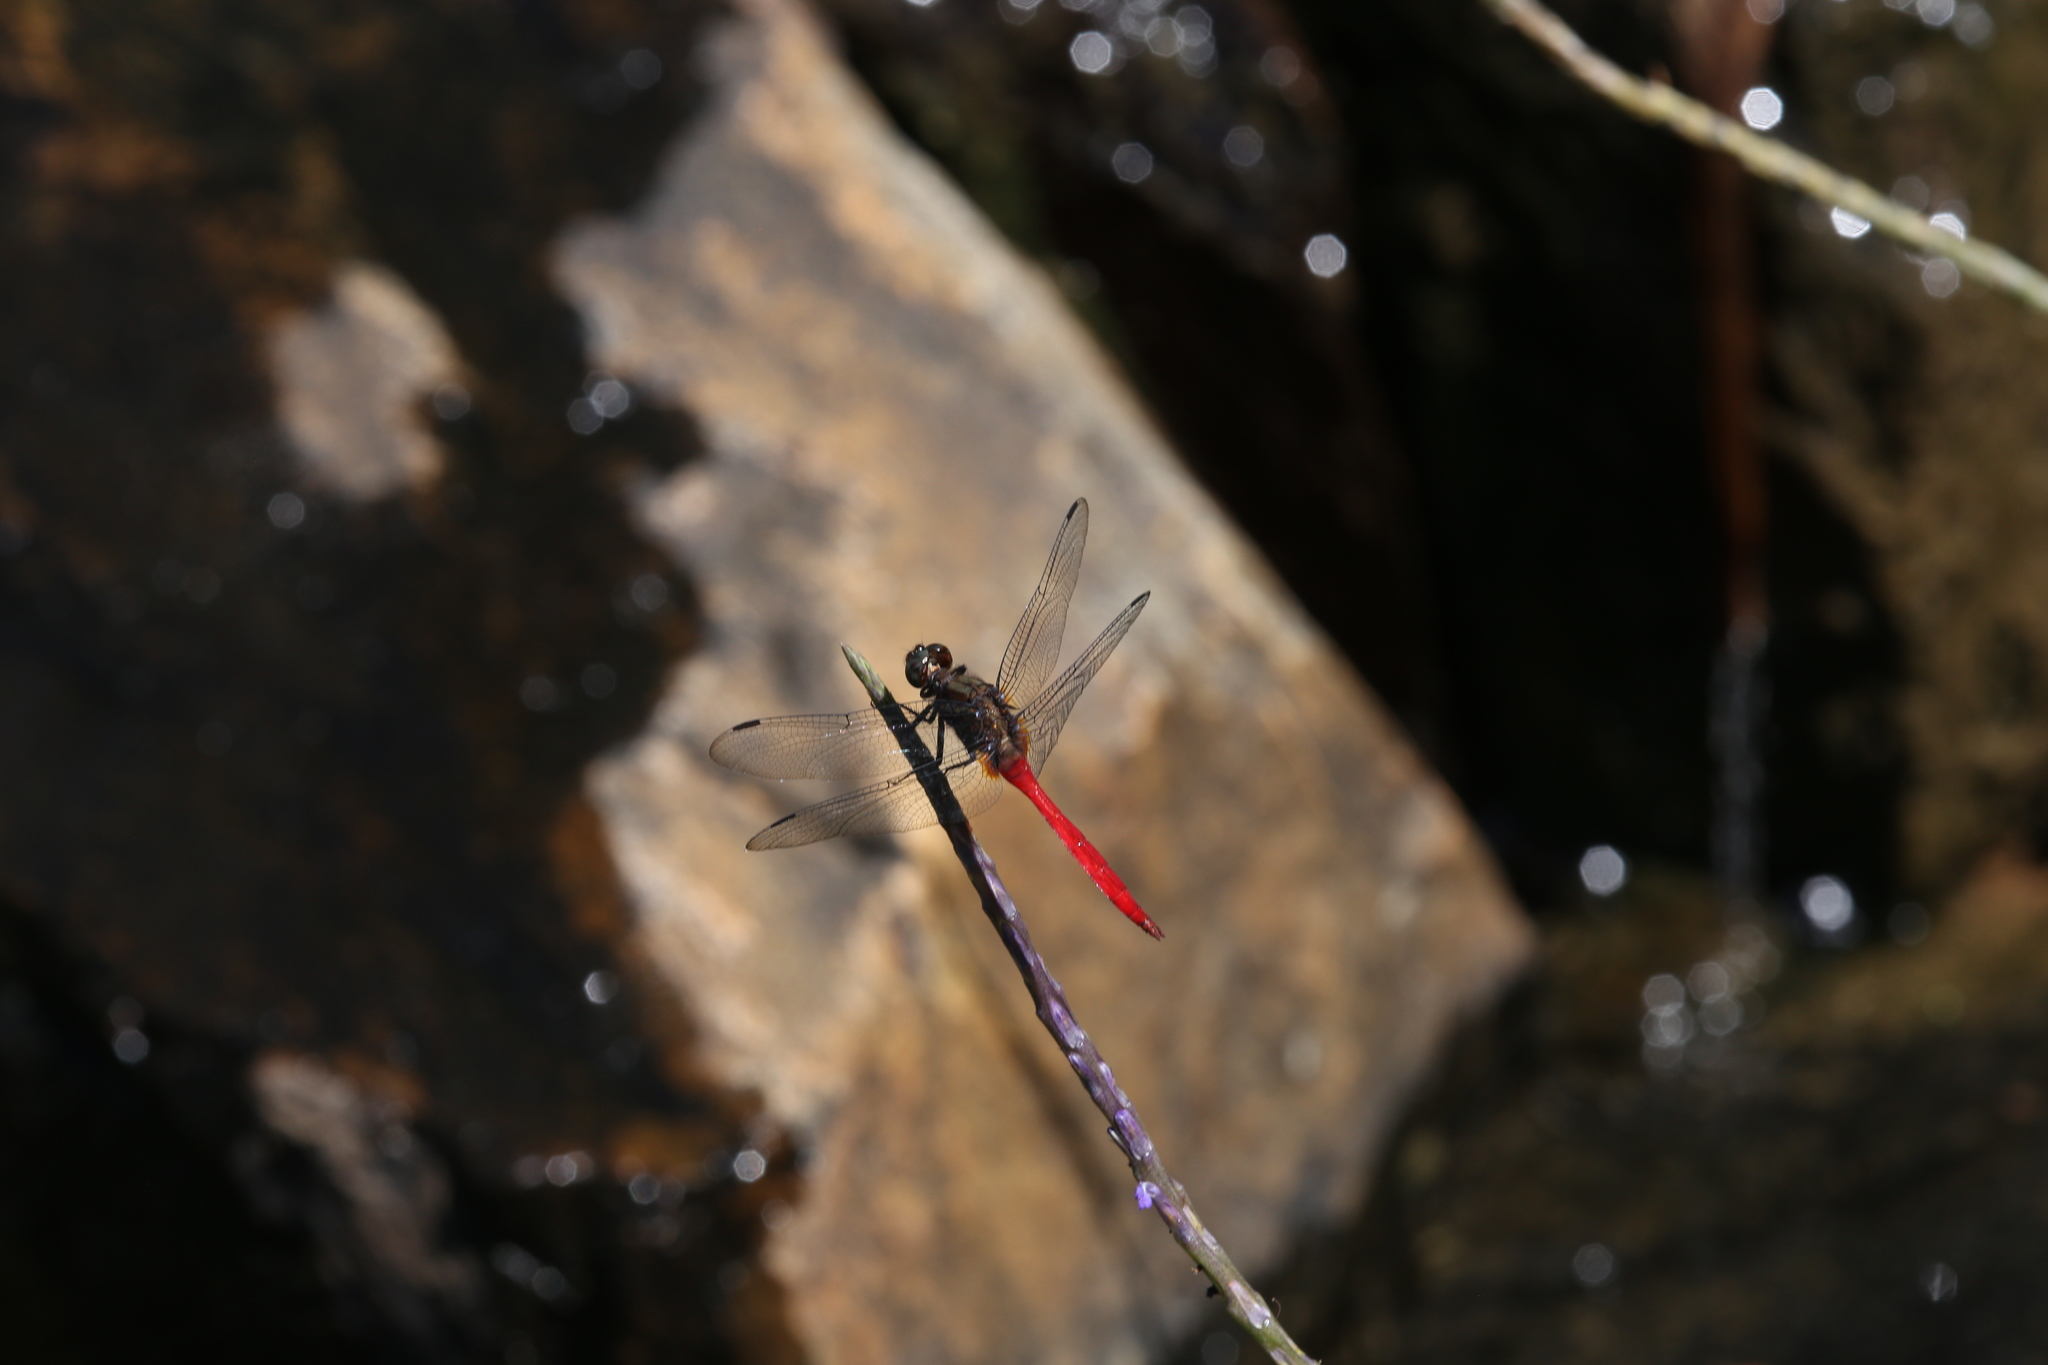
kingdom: Animalia
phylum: Arthropoda
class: Insecta
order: Odonata
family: Libellulidae
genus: Orthetrum
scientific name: Orthetrum villosovittatum
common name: Firery skimmer
